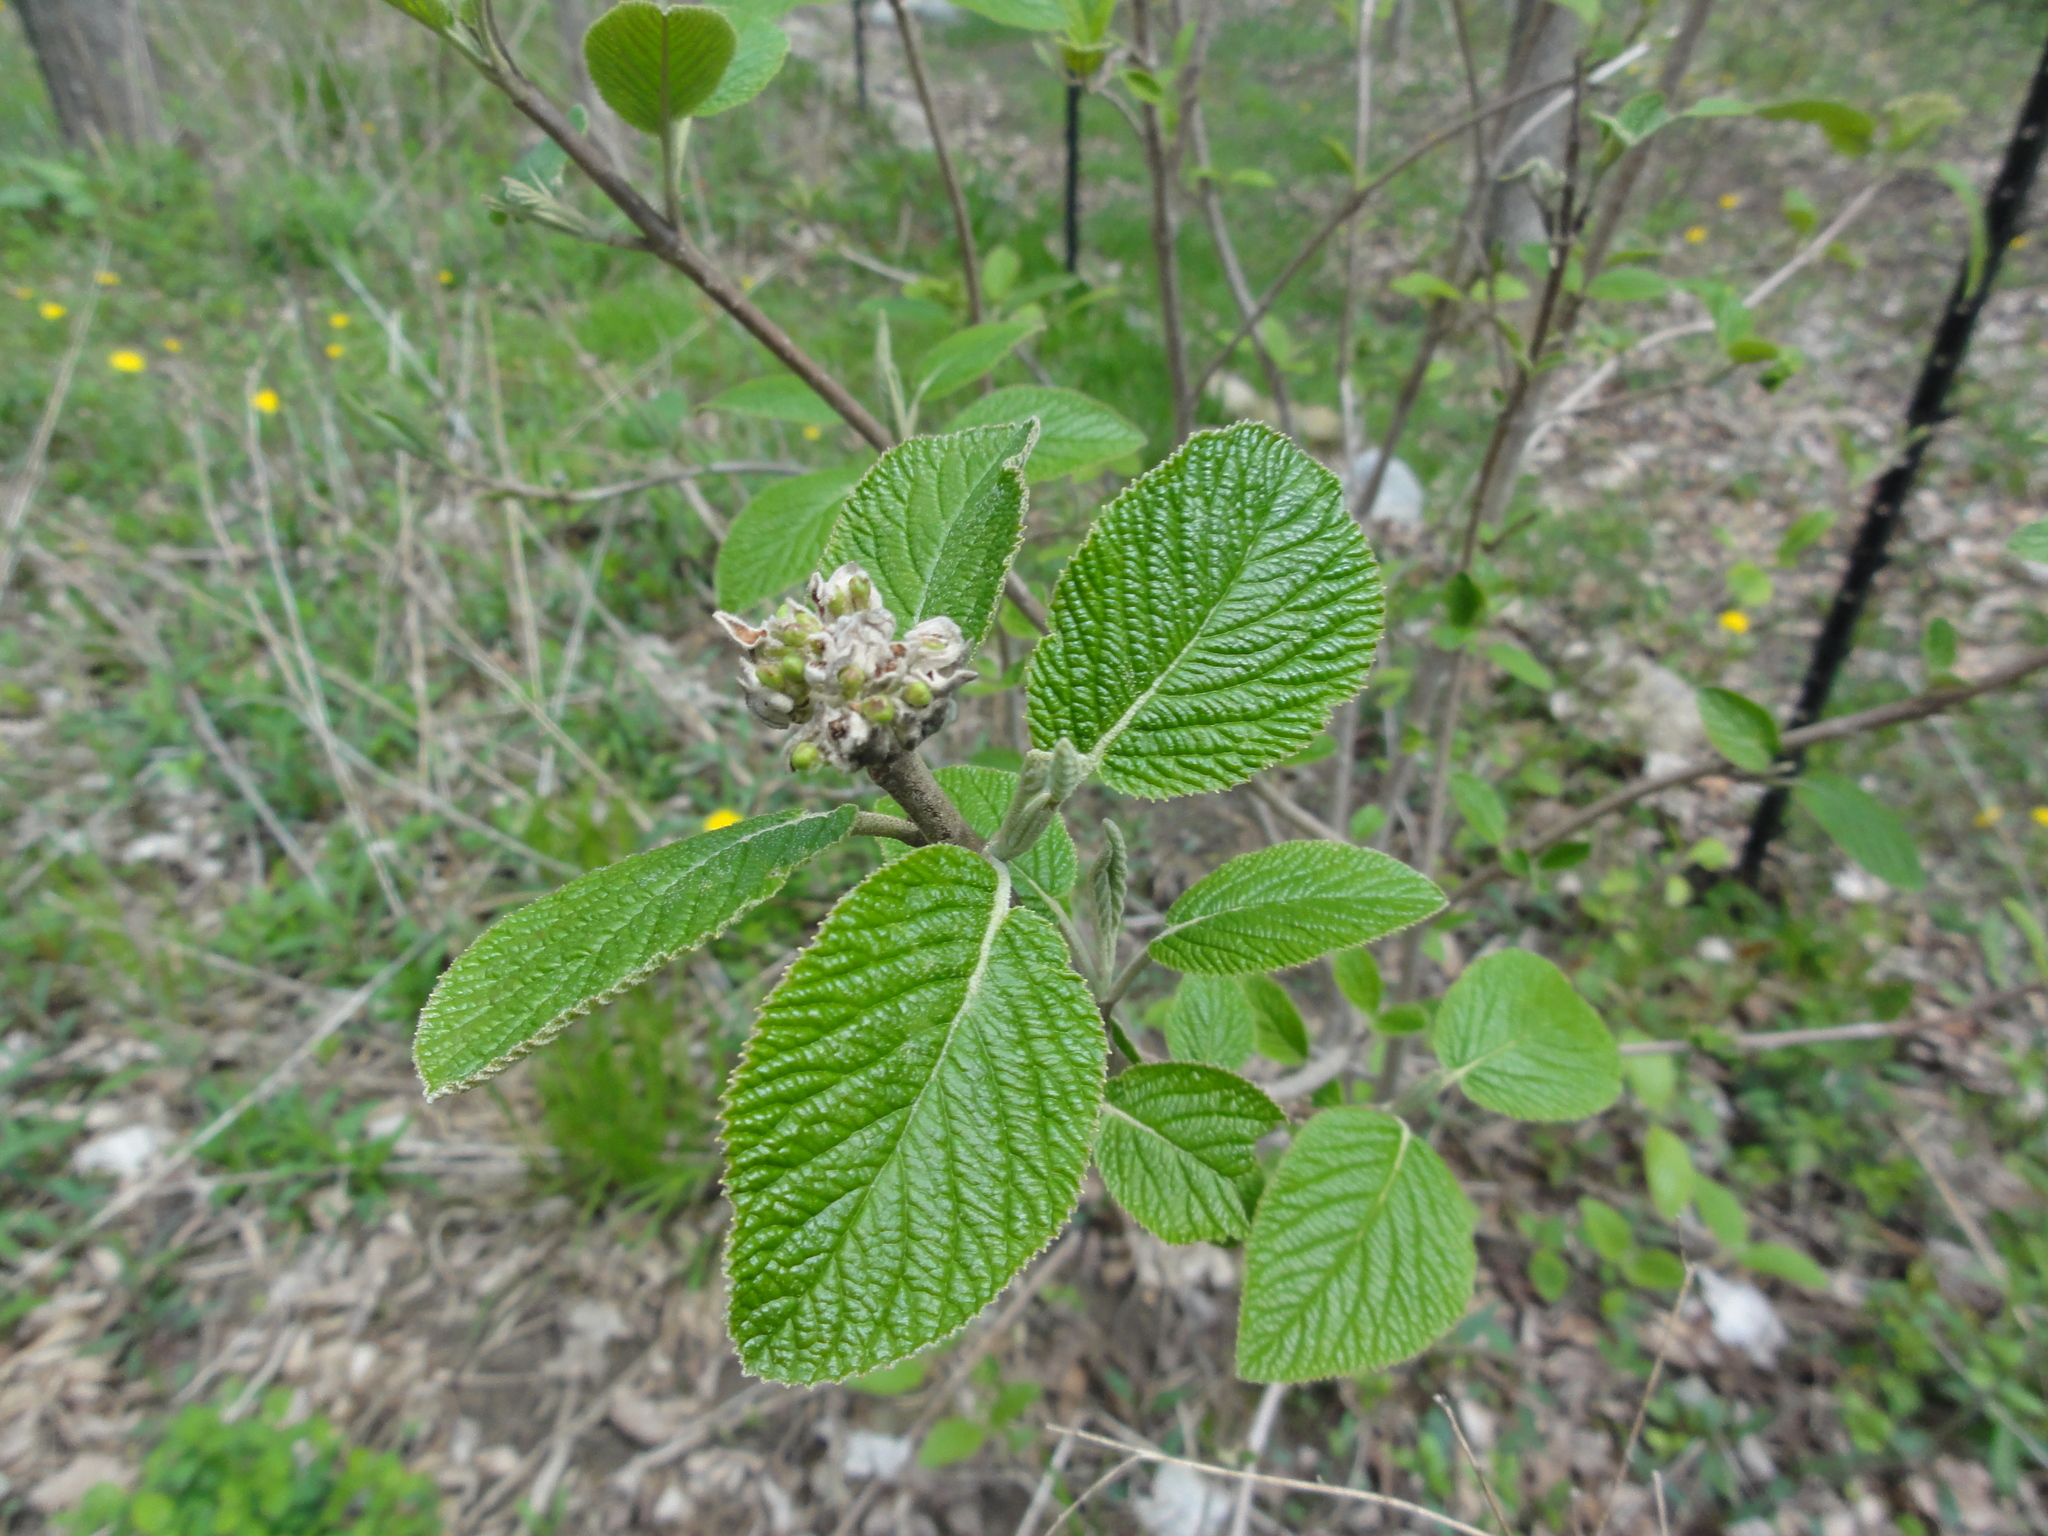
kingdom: Plantae
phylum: Tracheophyta
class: Magnoliopsida
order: Dipsacales
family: Viburnaceae
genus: Viburnum
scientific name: Viburnum lantana
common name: Wayfaring tree
